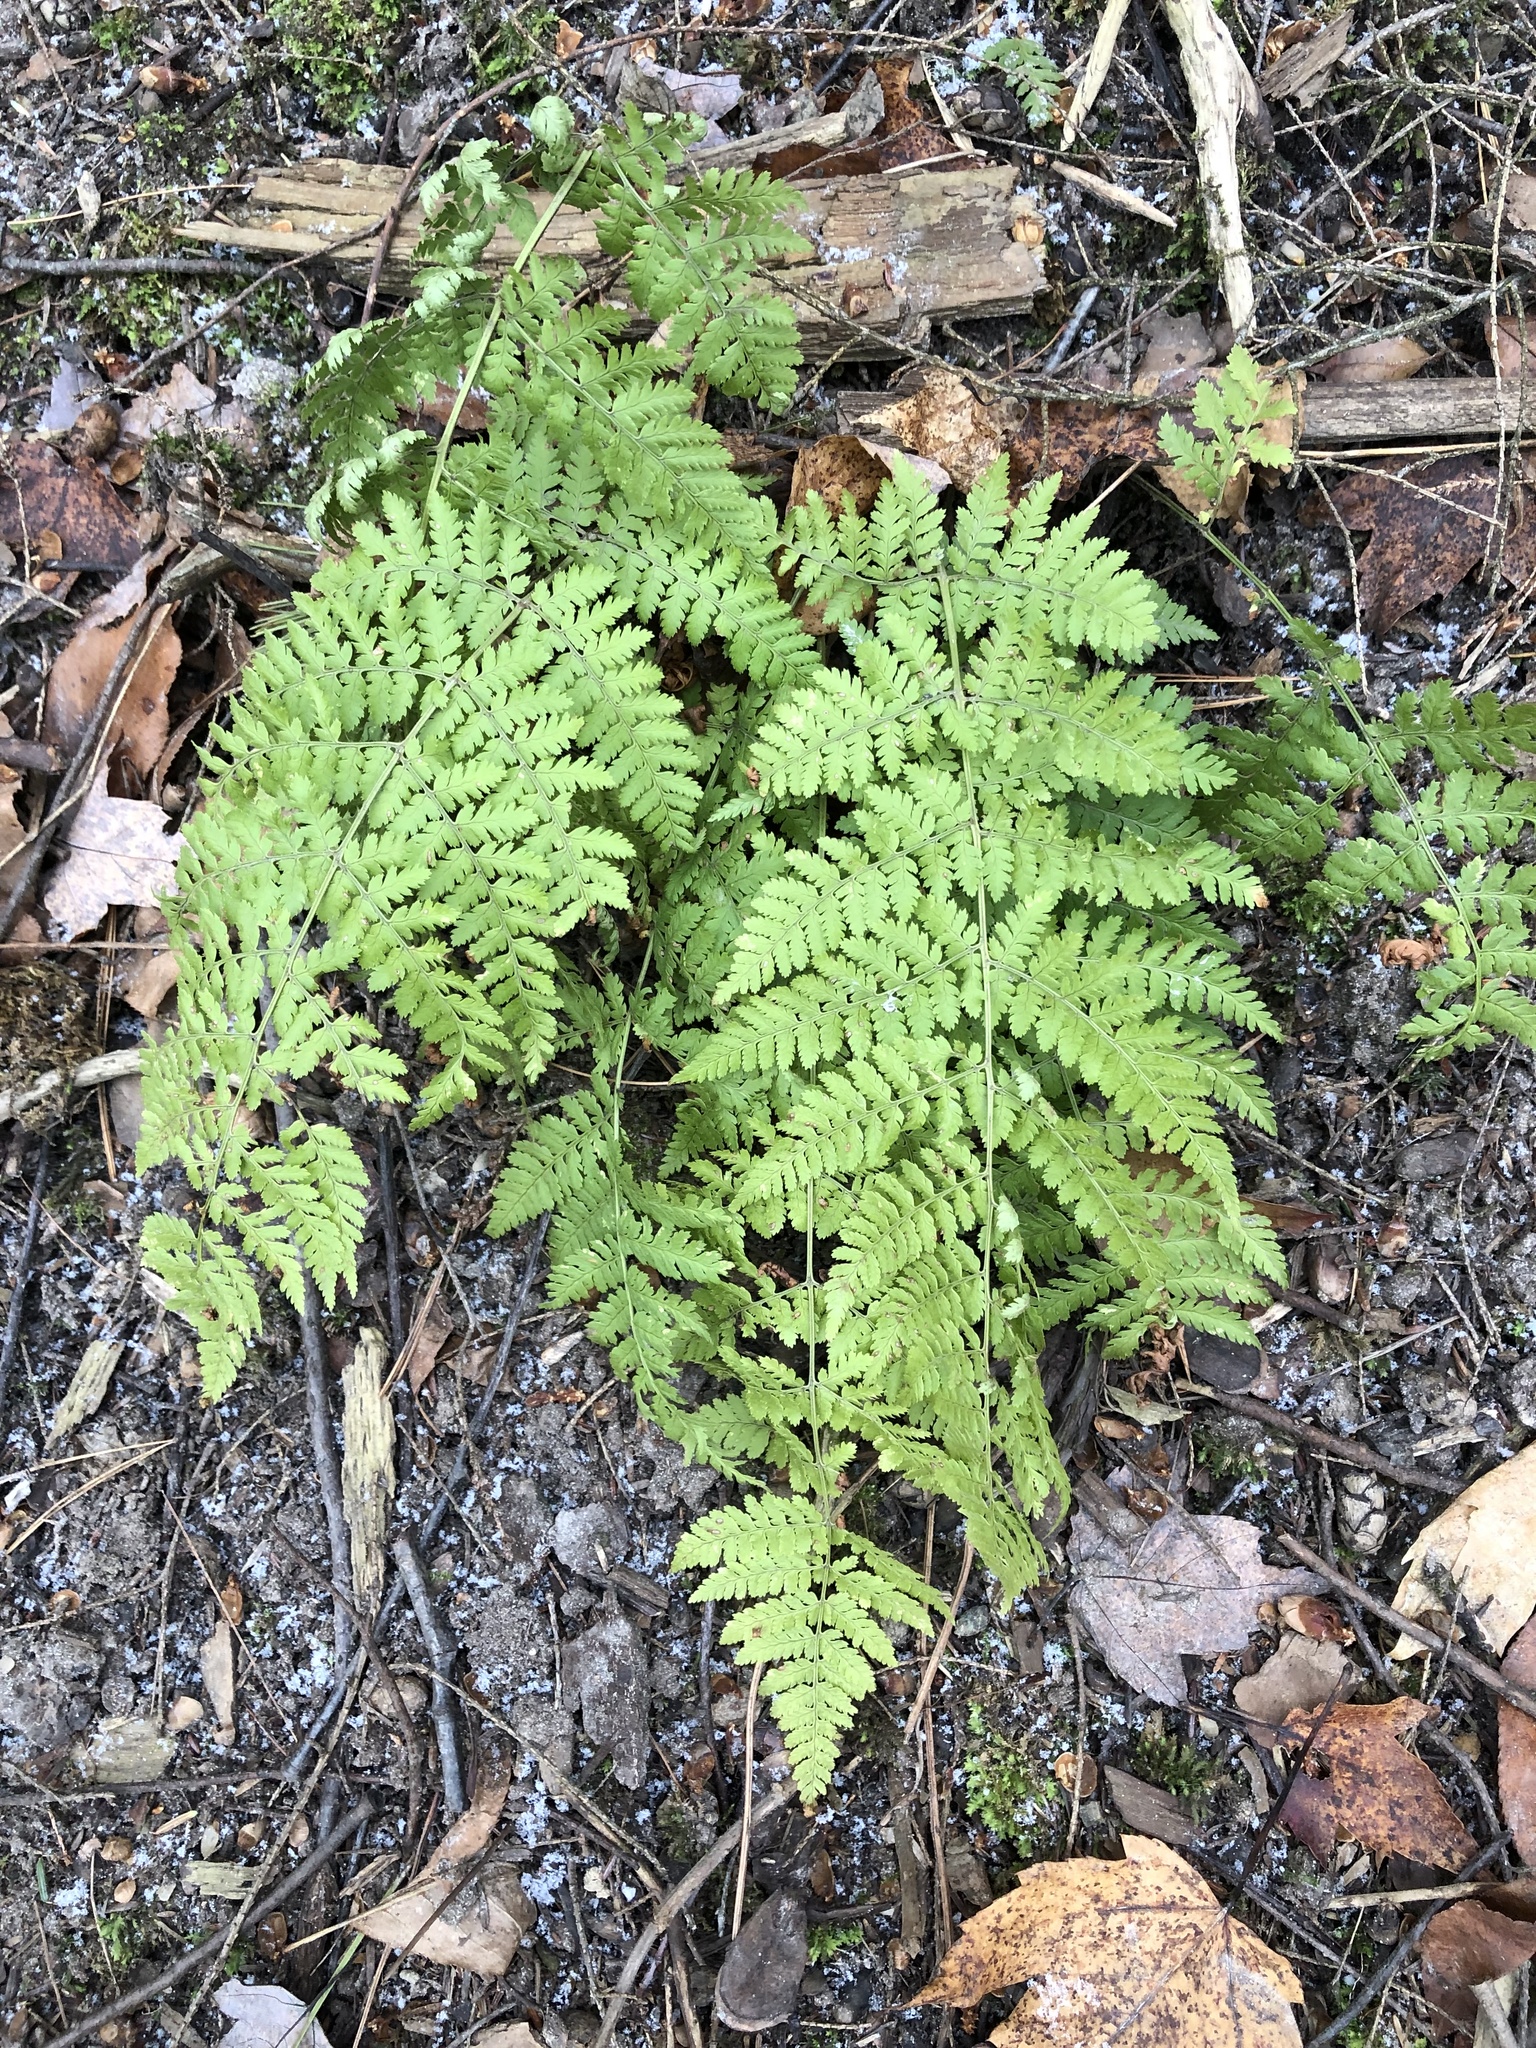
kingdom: Plantae
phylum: Tracheophyta
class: Polypodiopsida
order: Polypodiales
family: Dryopteridaceae
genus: Dryopteris
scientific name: Dryopteris intermedia
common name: Evergreen wood fern
